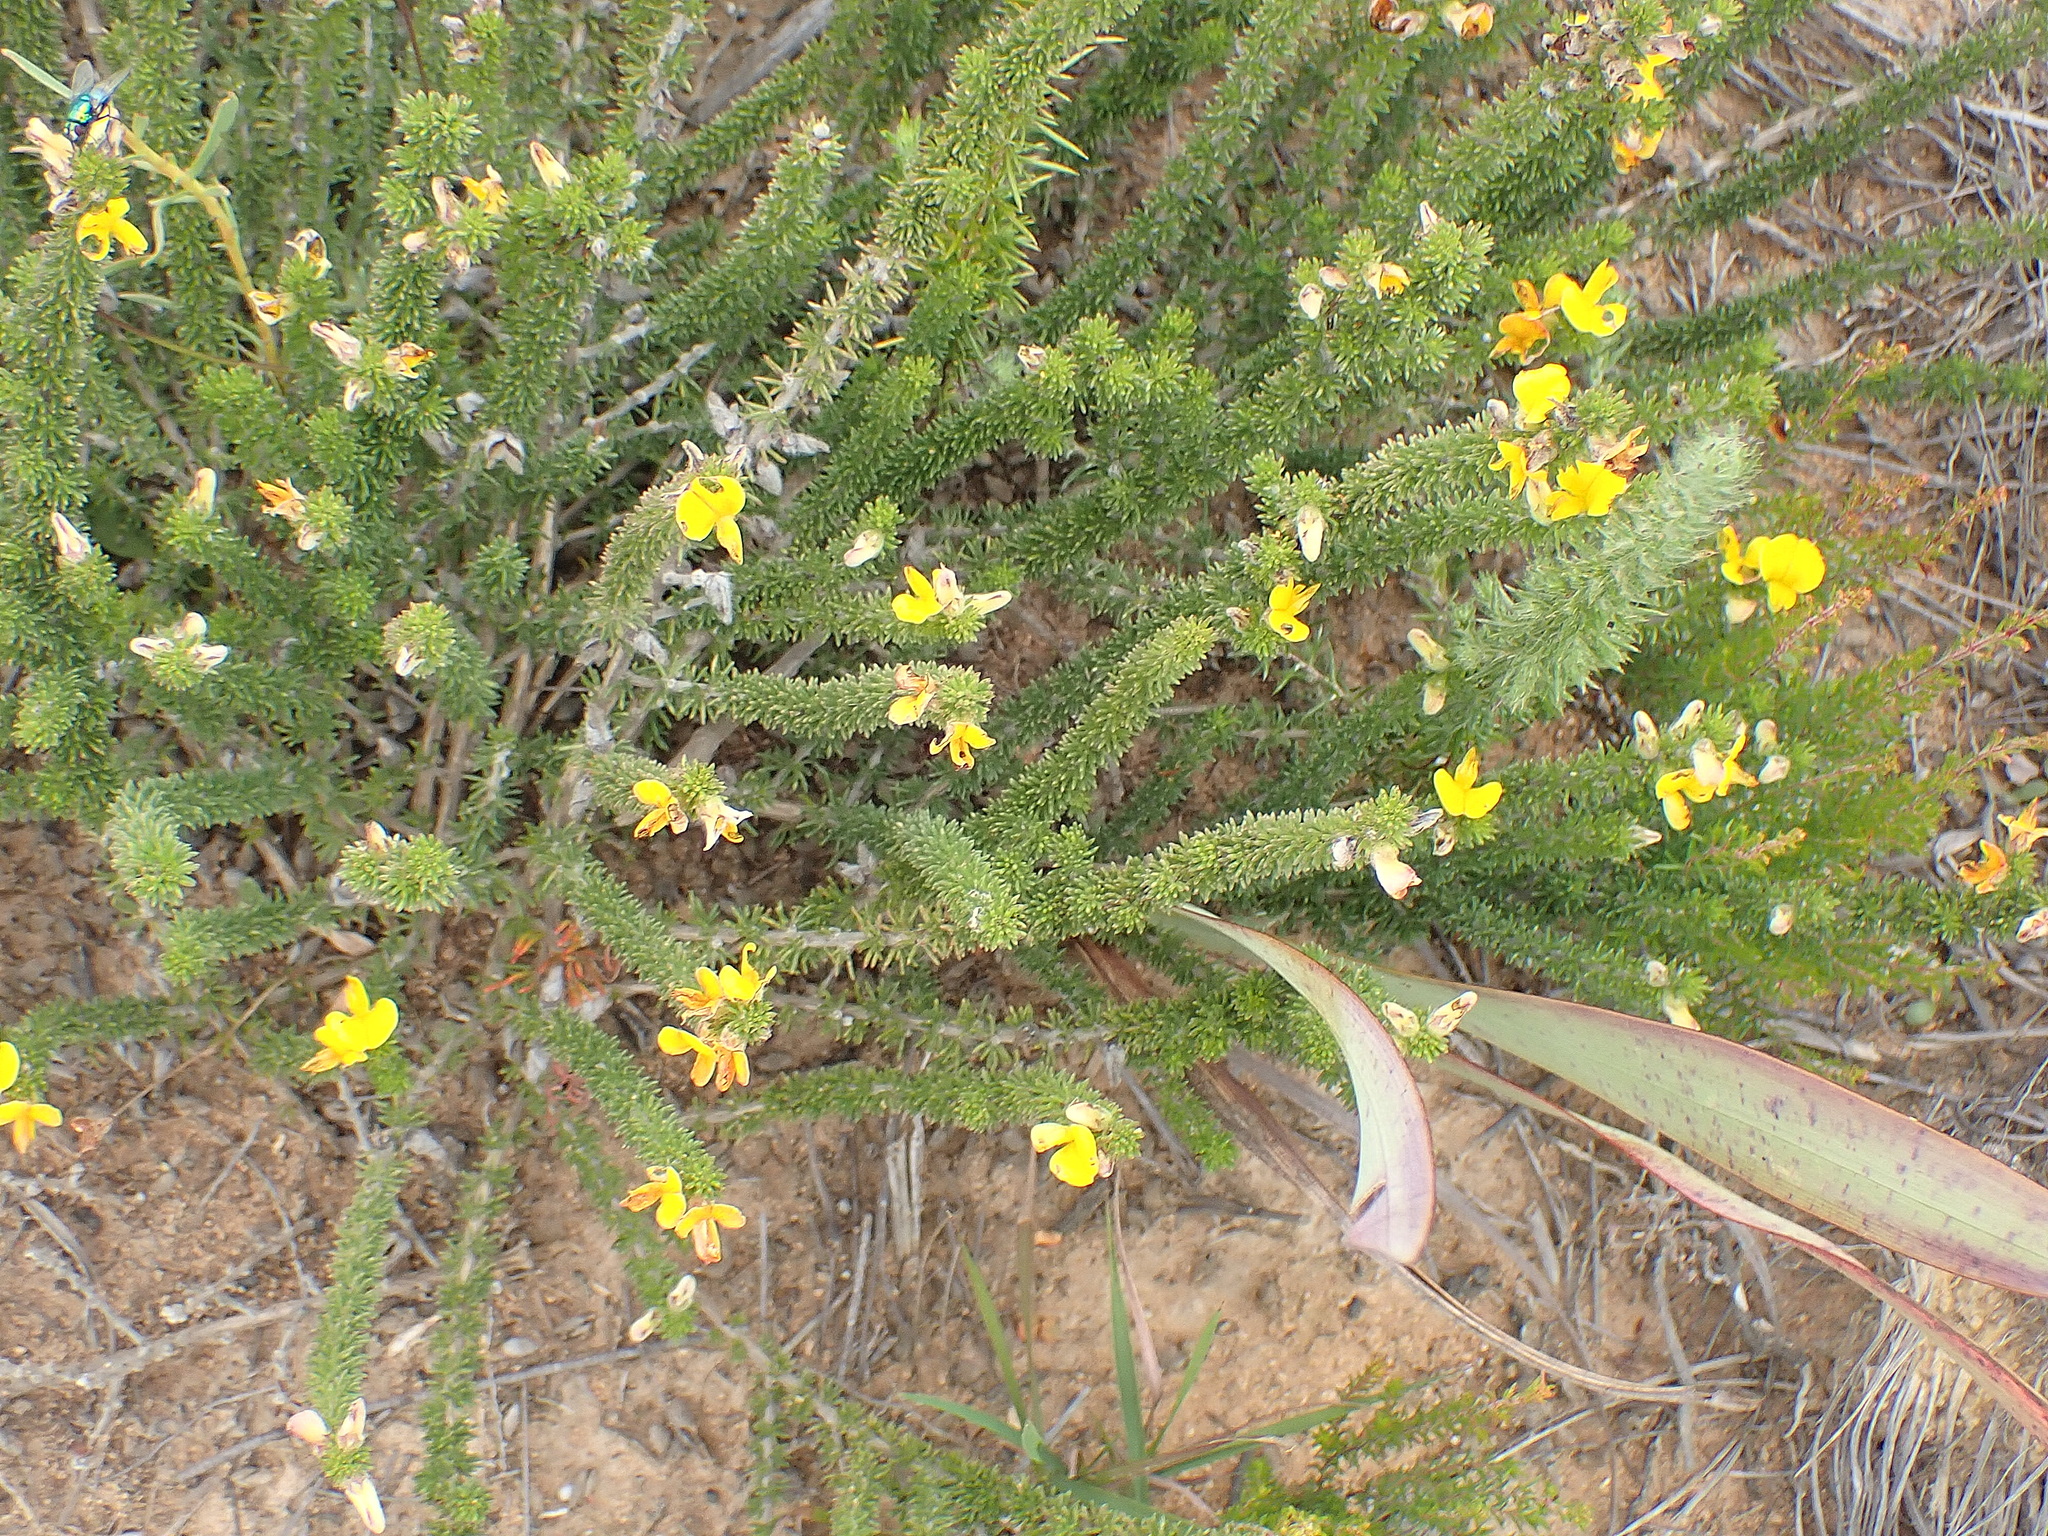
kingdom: Plantae
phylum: Tracheophyta
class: Magnoliopsida
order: Fabales
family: Fabaceae
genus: Aspalathus
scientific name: Aspalathus acuminata
